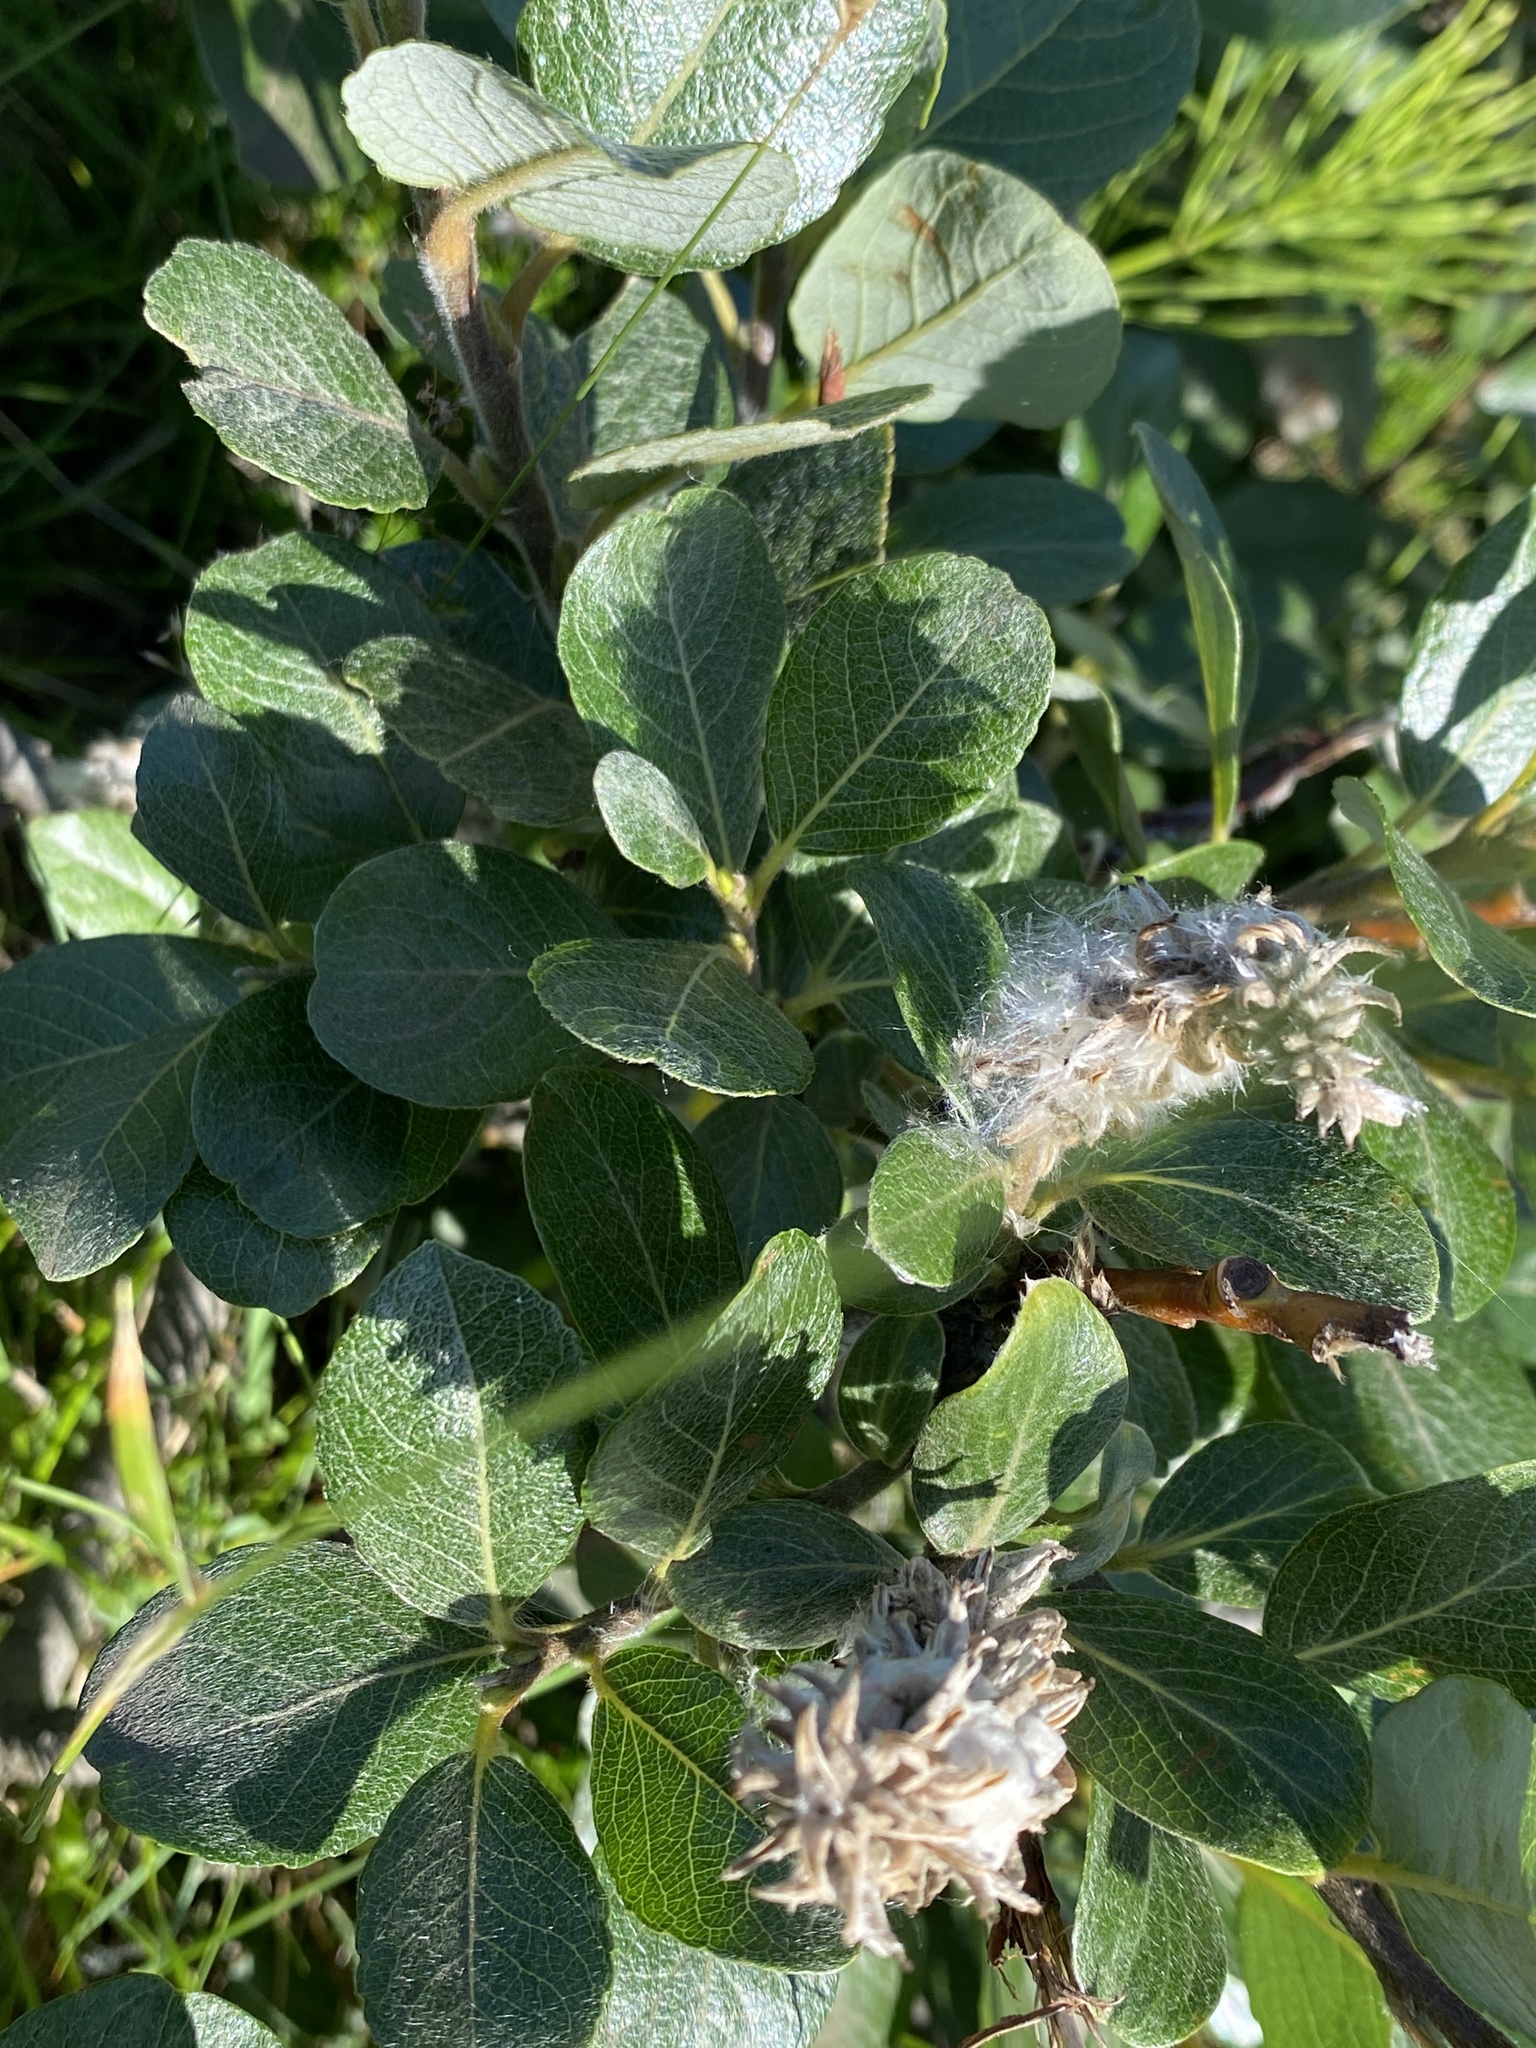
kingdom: Plantae
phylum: Tracheophyta
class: Magnoliopsida
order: Malpighiales
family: Salicaceae
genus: Salix
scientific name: Salix lanata
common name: Woolly willow
